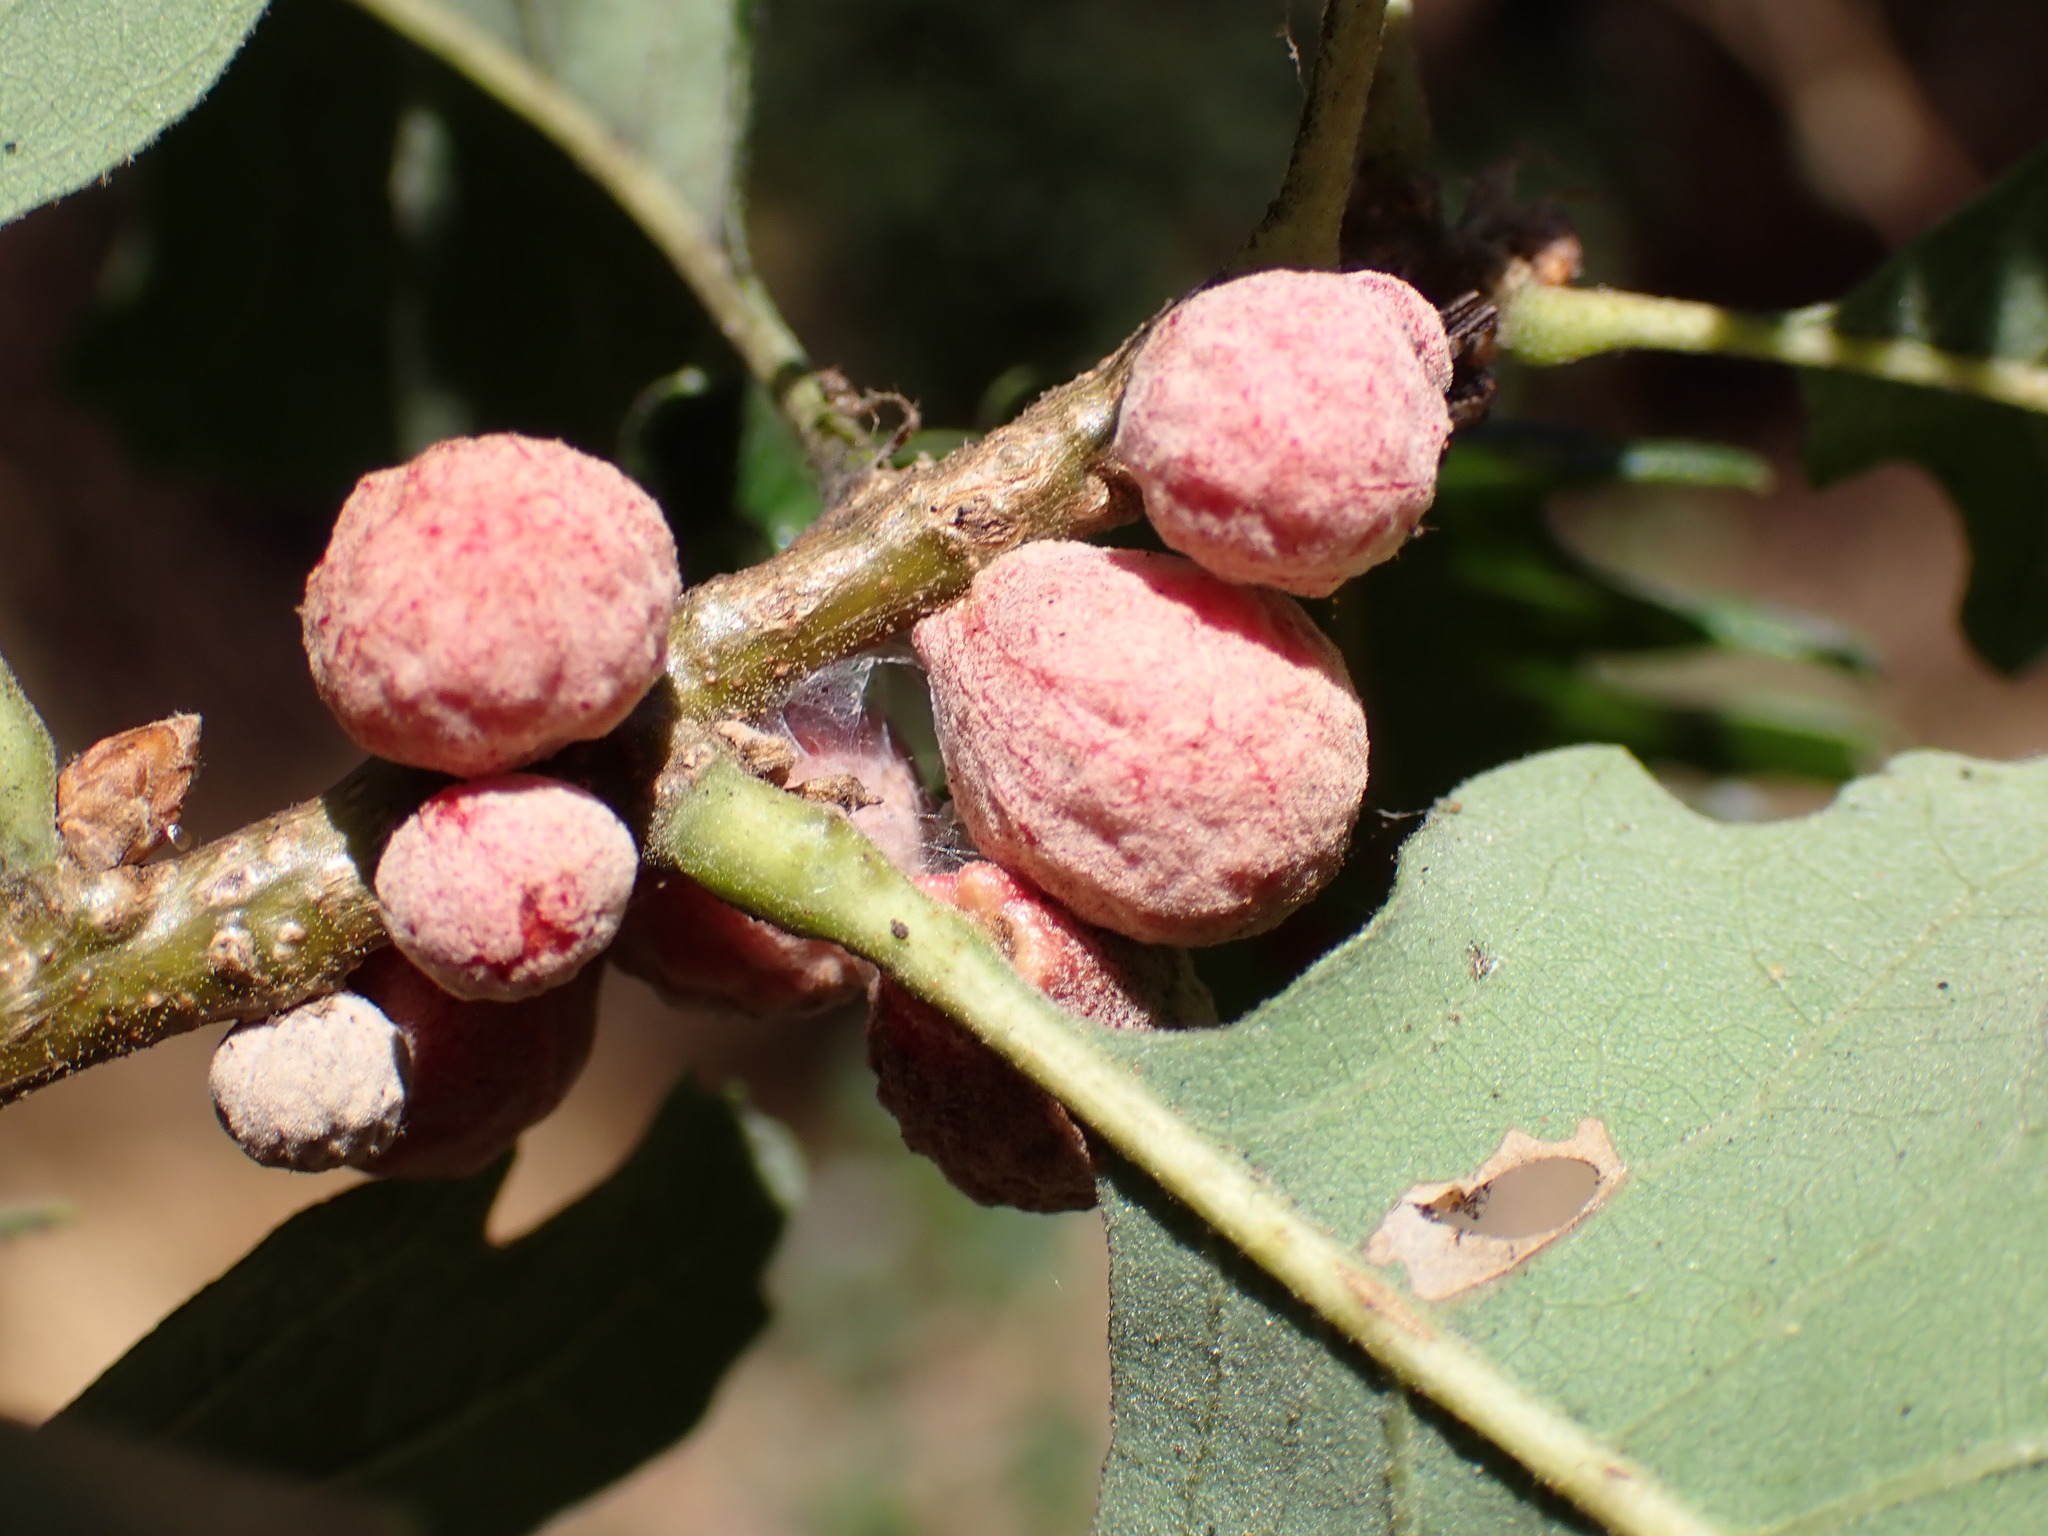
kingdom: Animalia
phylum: Arthropoda
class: Insecta
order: Hymenoptera
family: Cynipidae
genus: Cynips
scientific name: Cynips conspicua
